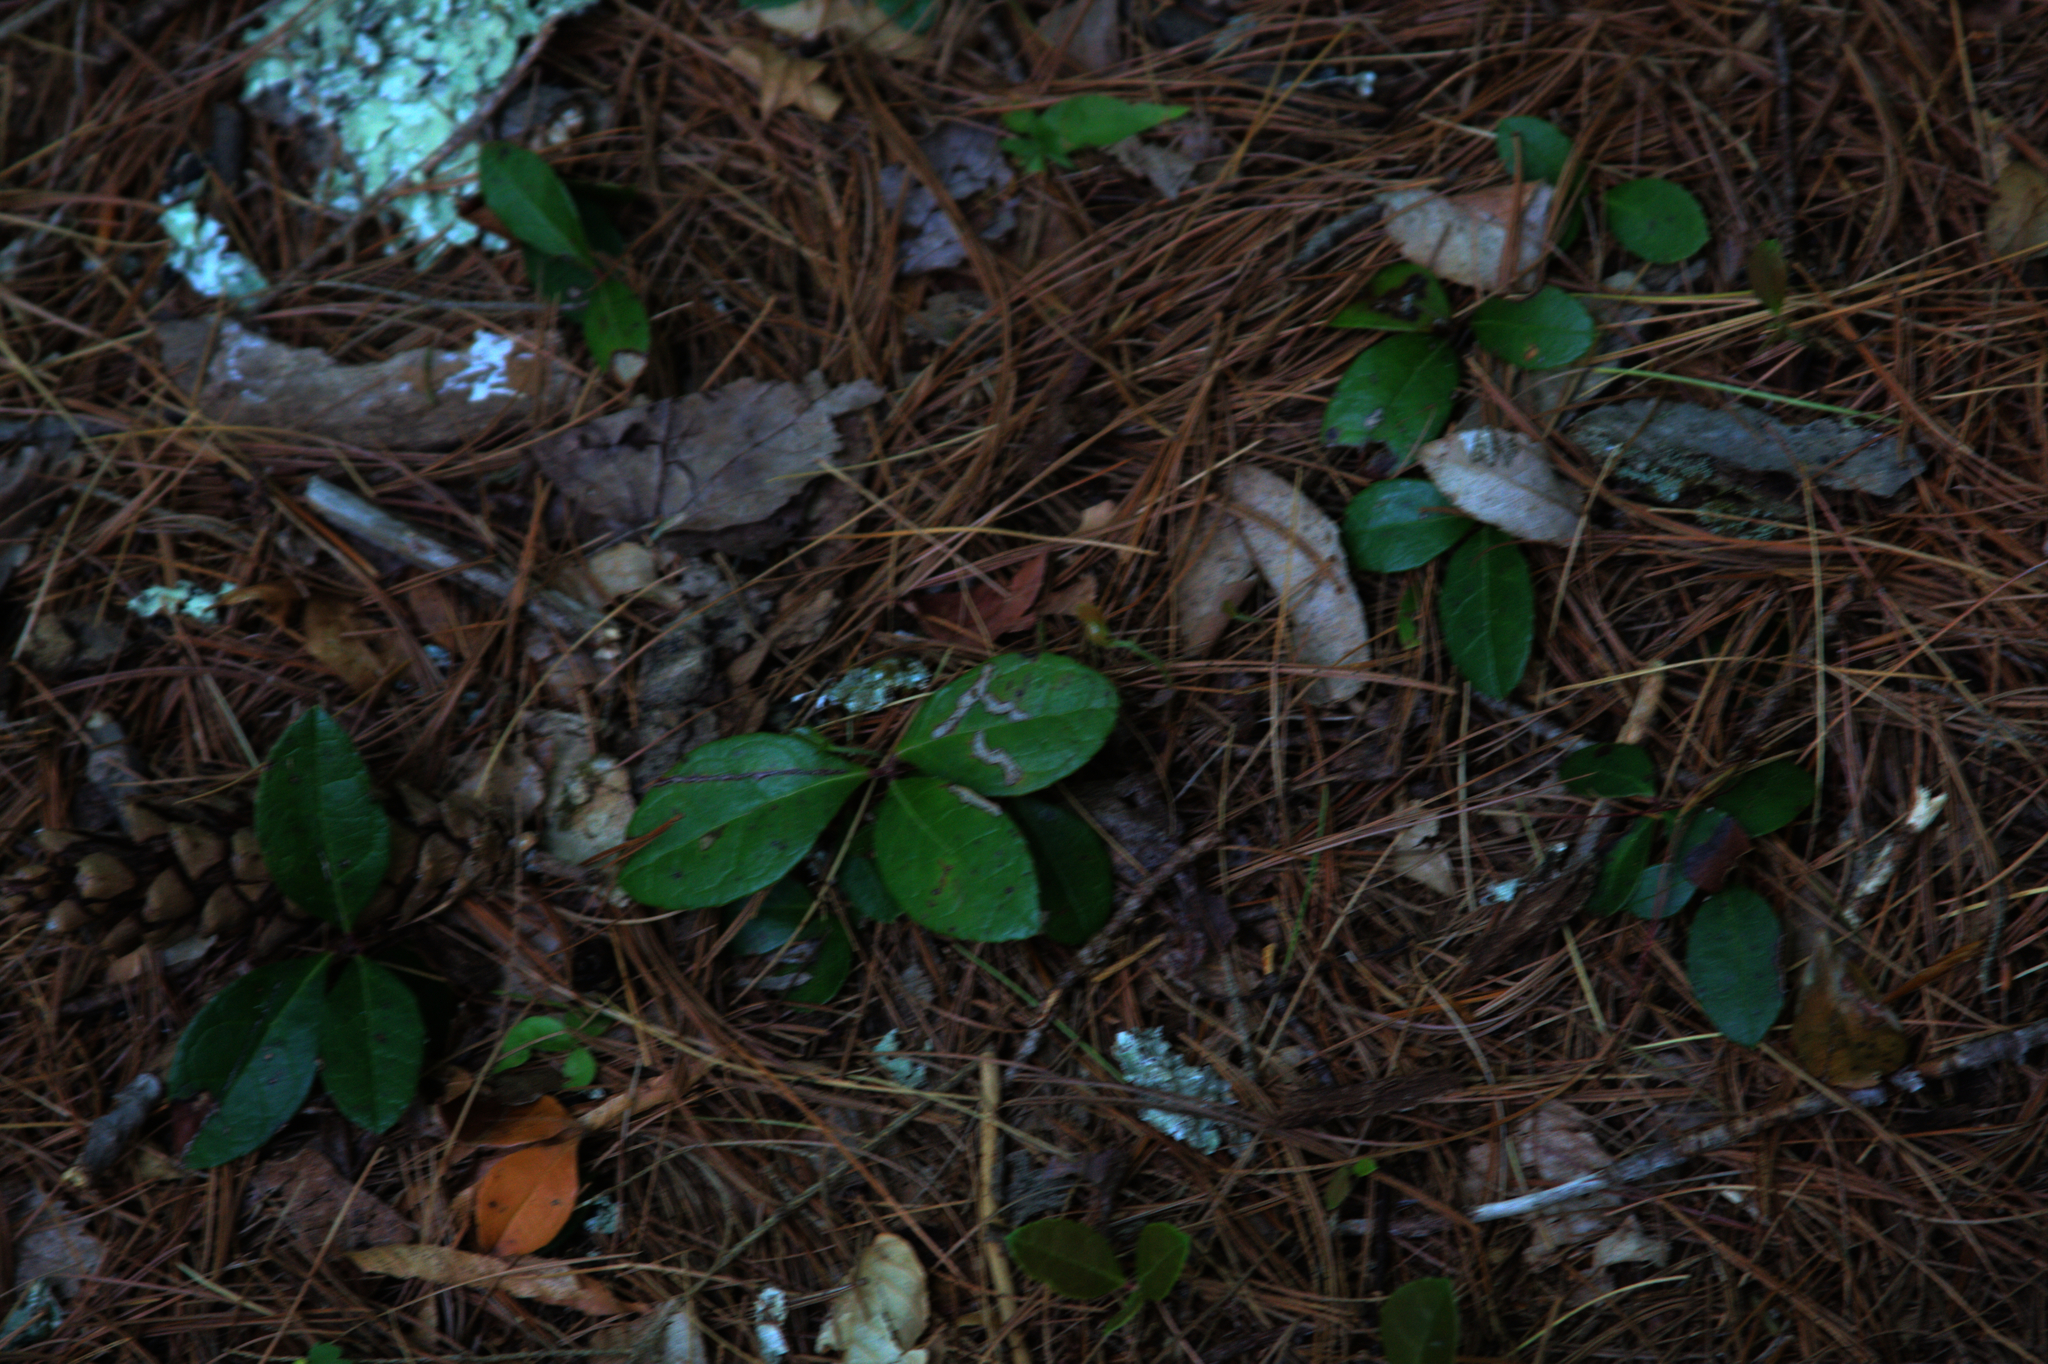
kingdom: Plantae
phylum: Tracheophyta
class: Magnoliopsida
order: Ericales
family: Ericaceae
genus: Gaultheria
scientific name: Gaultheria procumbens
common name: Checkerberry
